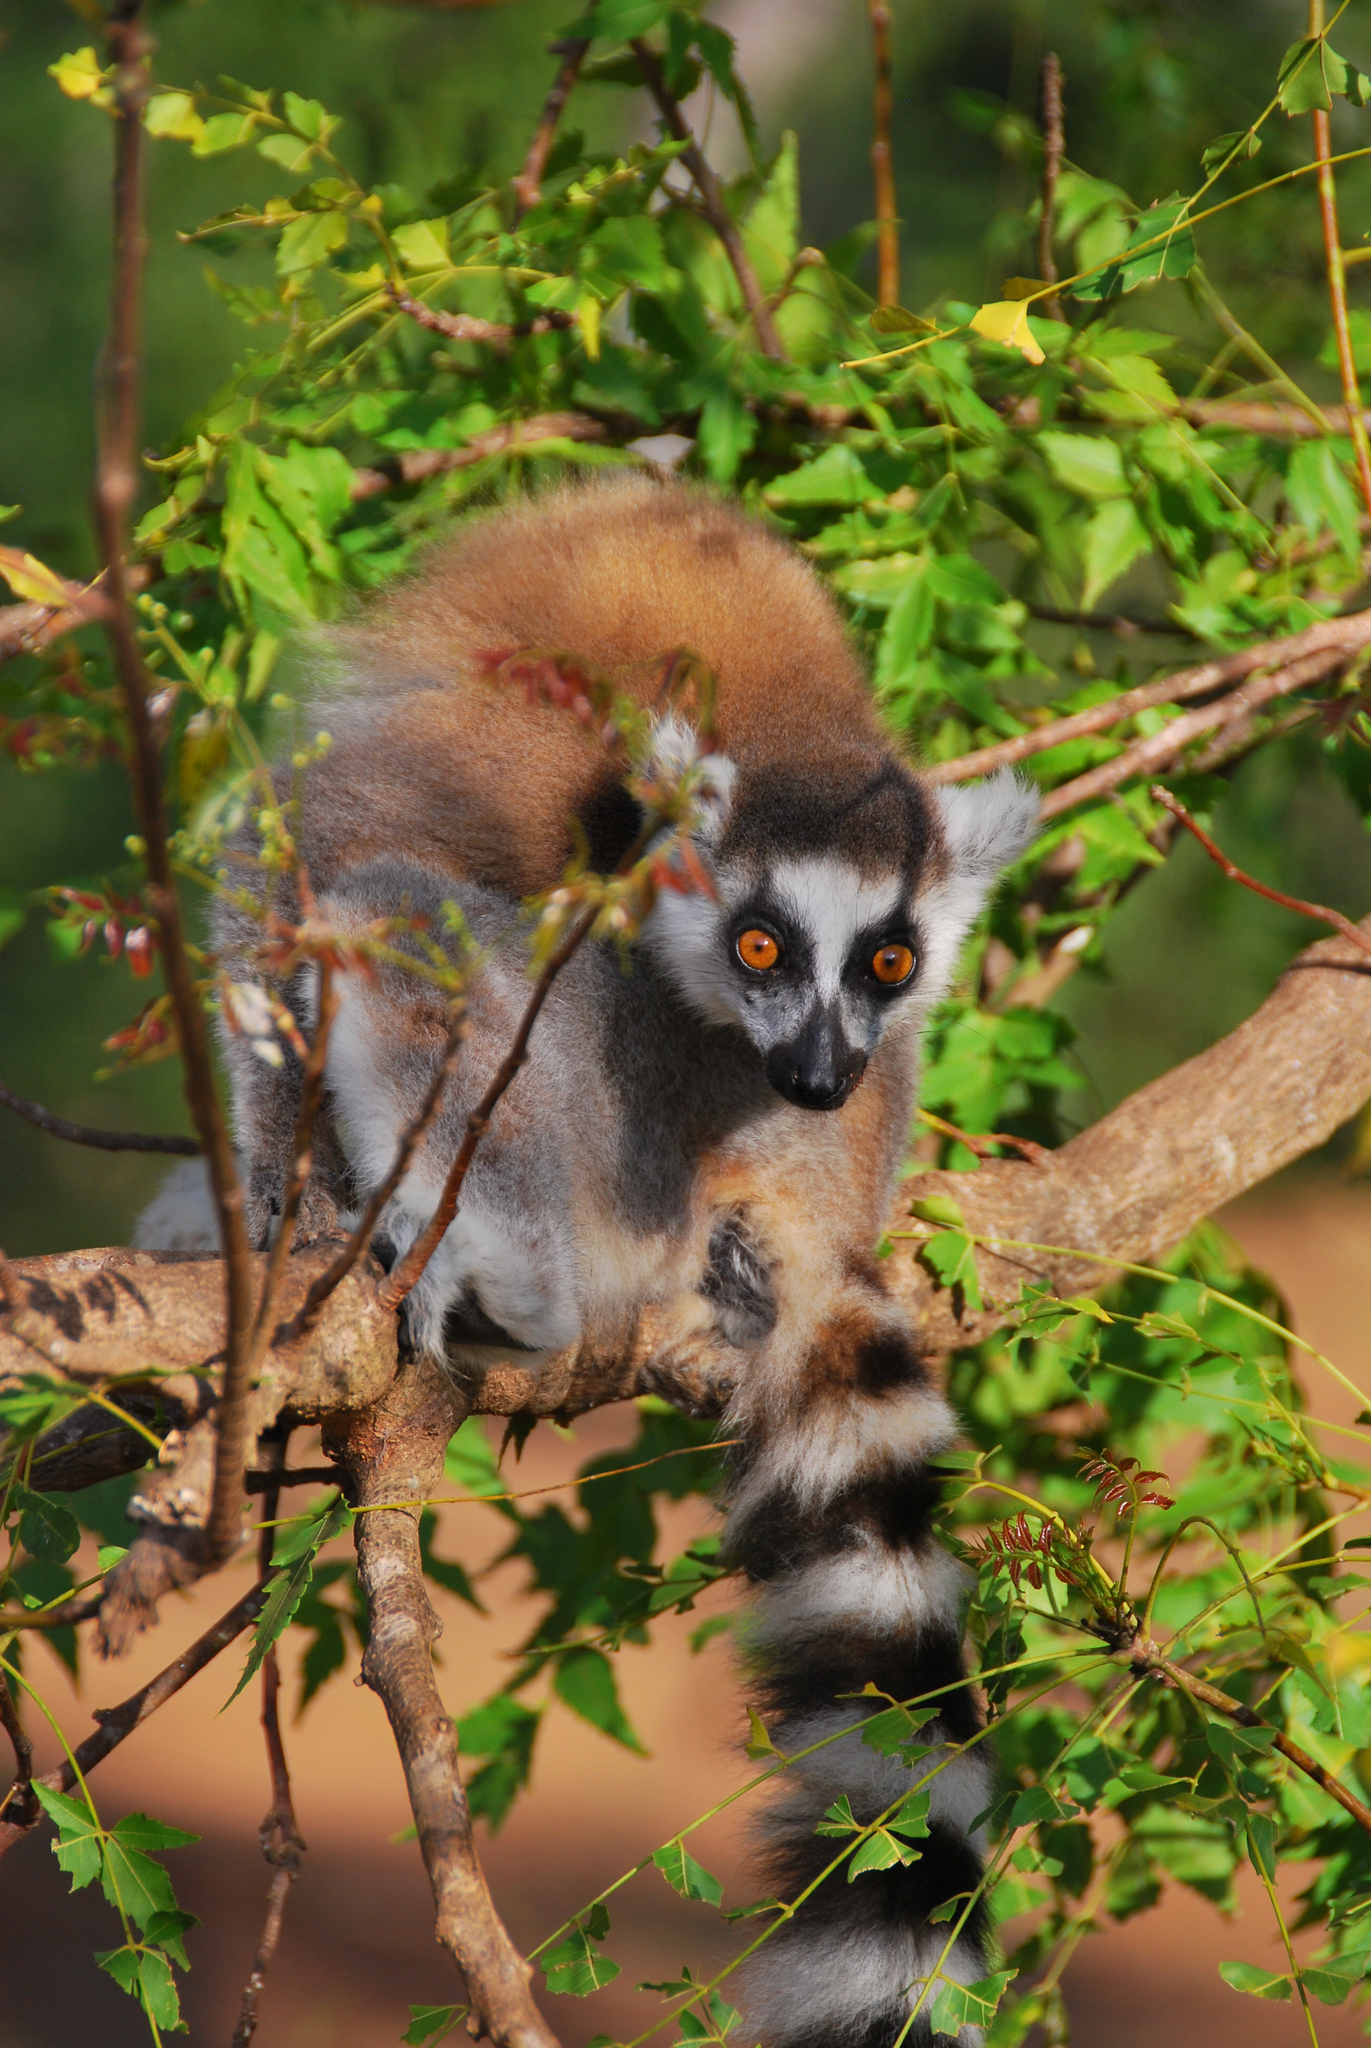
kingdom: Animalia
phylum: Chordata
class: Mammalia
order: Primates
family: Lemuridae
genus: Lemur
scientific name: Lemur catta
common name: Ring-tailed lemur
